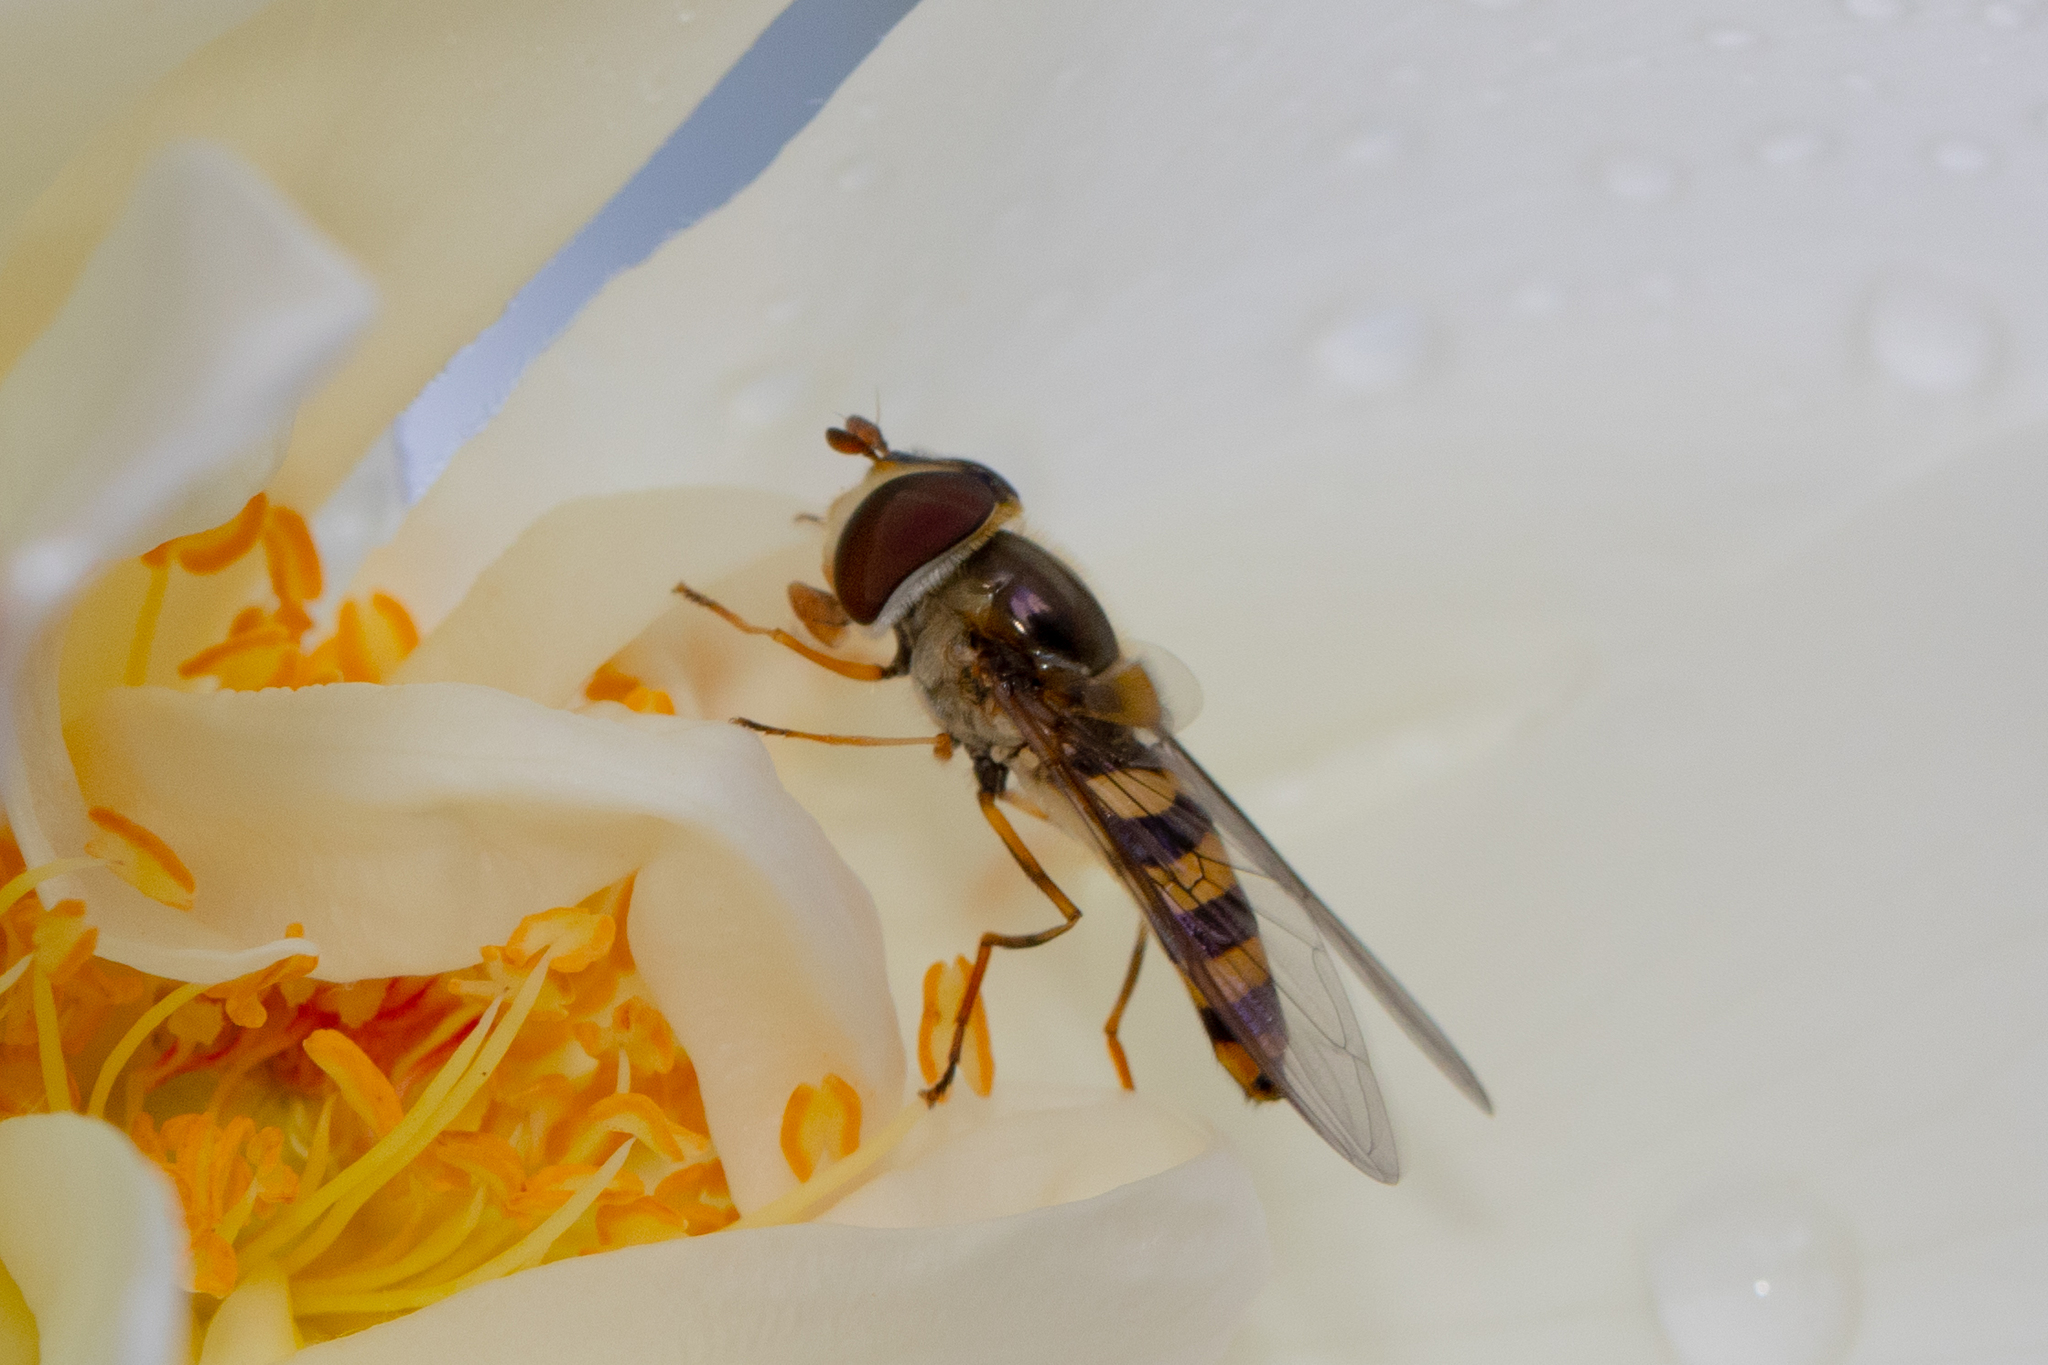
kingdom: Animalia
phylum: Arthropoda
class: Insecta
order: Diptera
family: Syrphidae
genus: Melangyna
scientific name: Melangyna viridiceps
